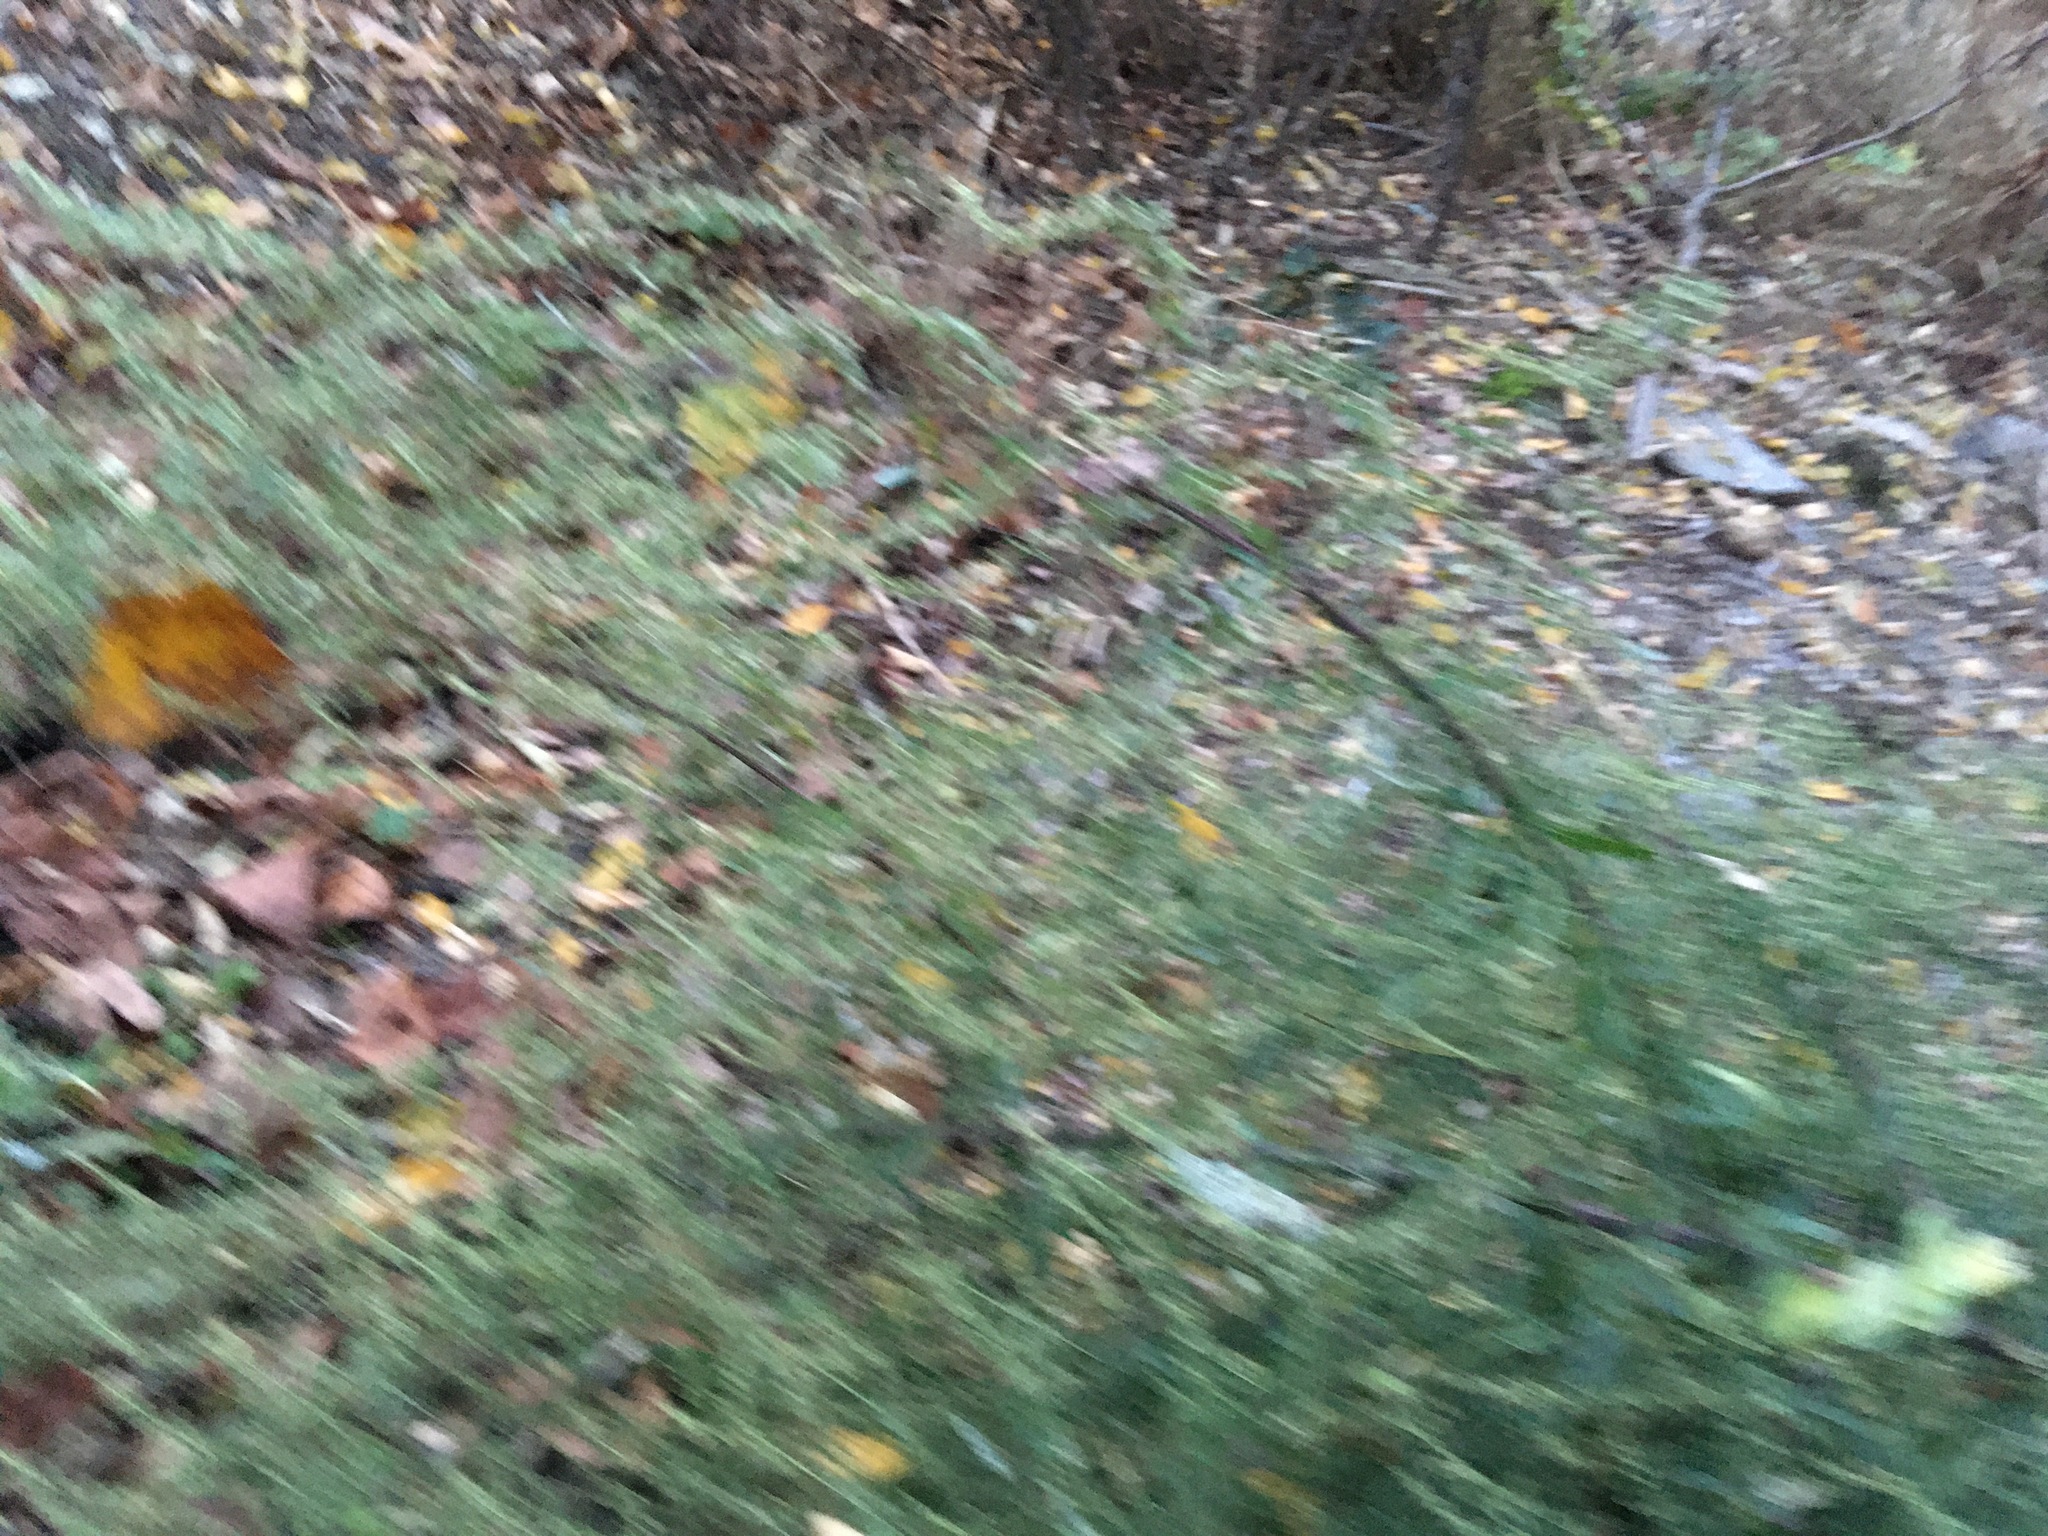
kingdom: Plantae
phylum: Tracheophyta
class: Magnoliopsida
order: Asterales
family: Asteraceae
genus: Artemisia
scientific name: Artemisia vulgaris
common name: Mugwort
